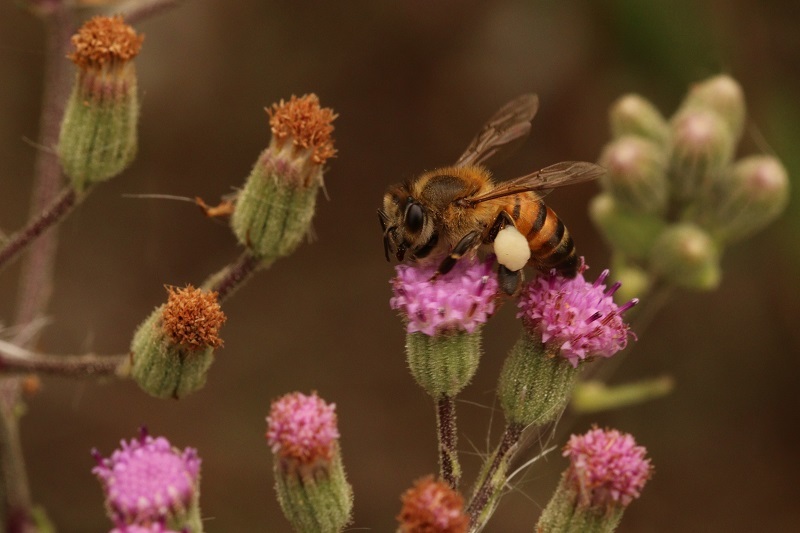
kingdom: Animalia
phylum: Arthropoda
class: Insecta
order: Hymenoptera
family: Apidae
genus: Apis
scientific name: Apis mellifera
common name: Honey bee
